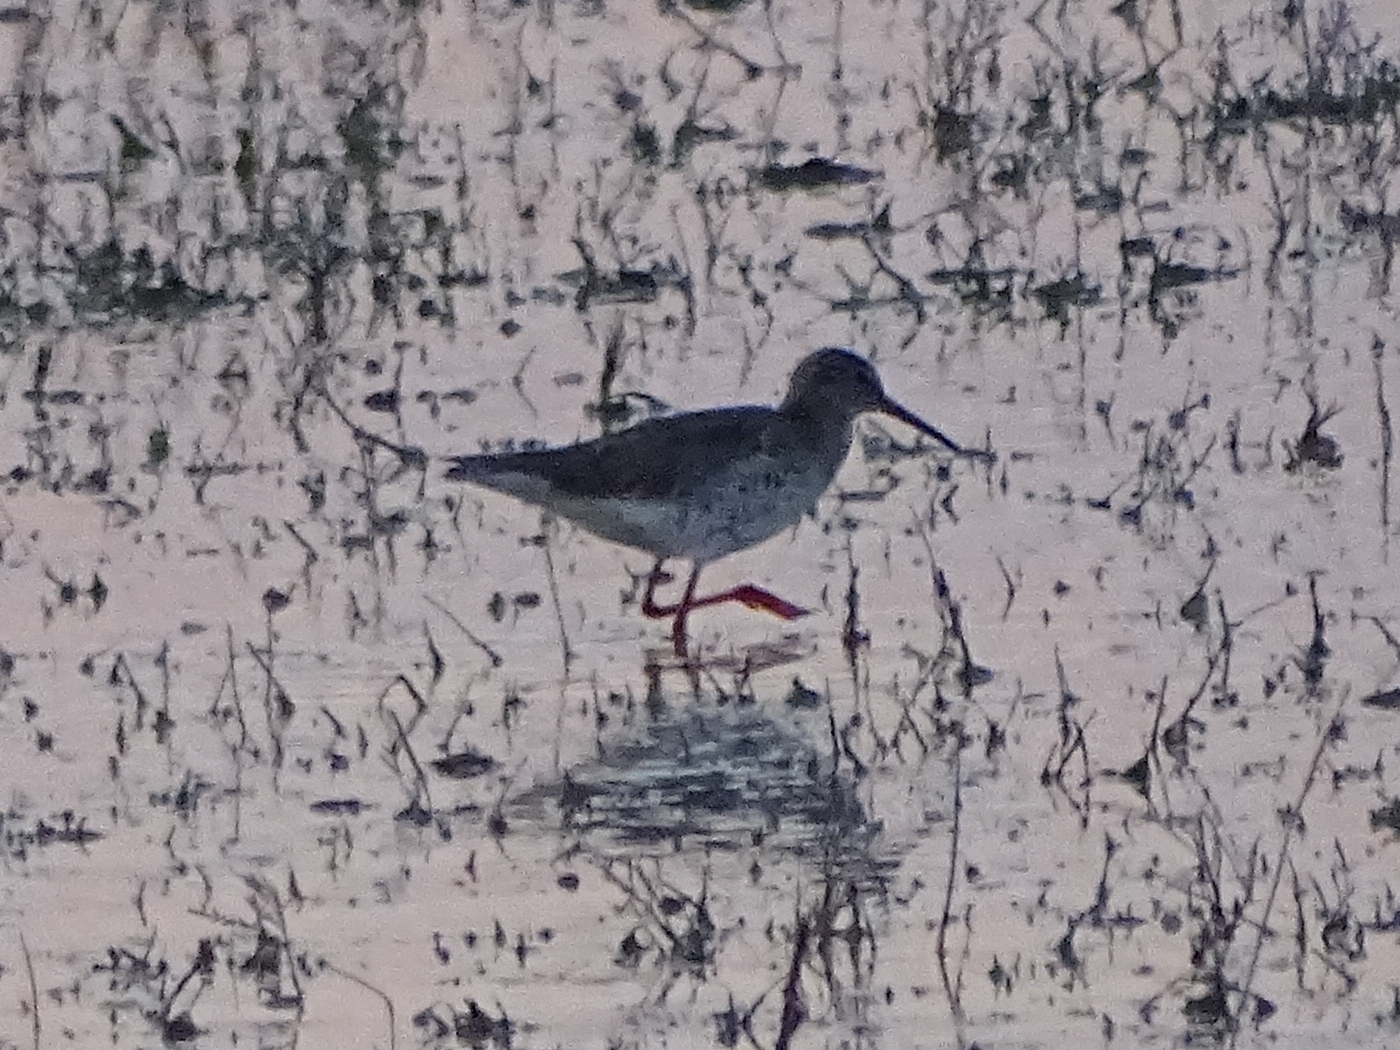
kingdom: Animalia
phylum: Chordata
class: Aves
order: Charadriiformes
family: Scolopacidae
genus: Tringa
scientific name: Tringa totanus
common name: Common redshank
